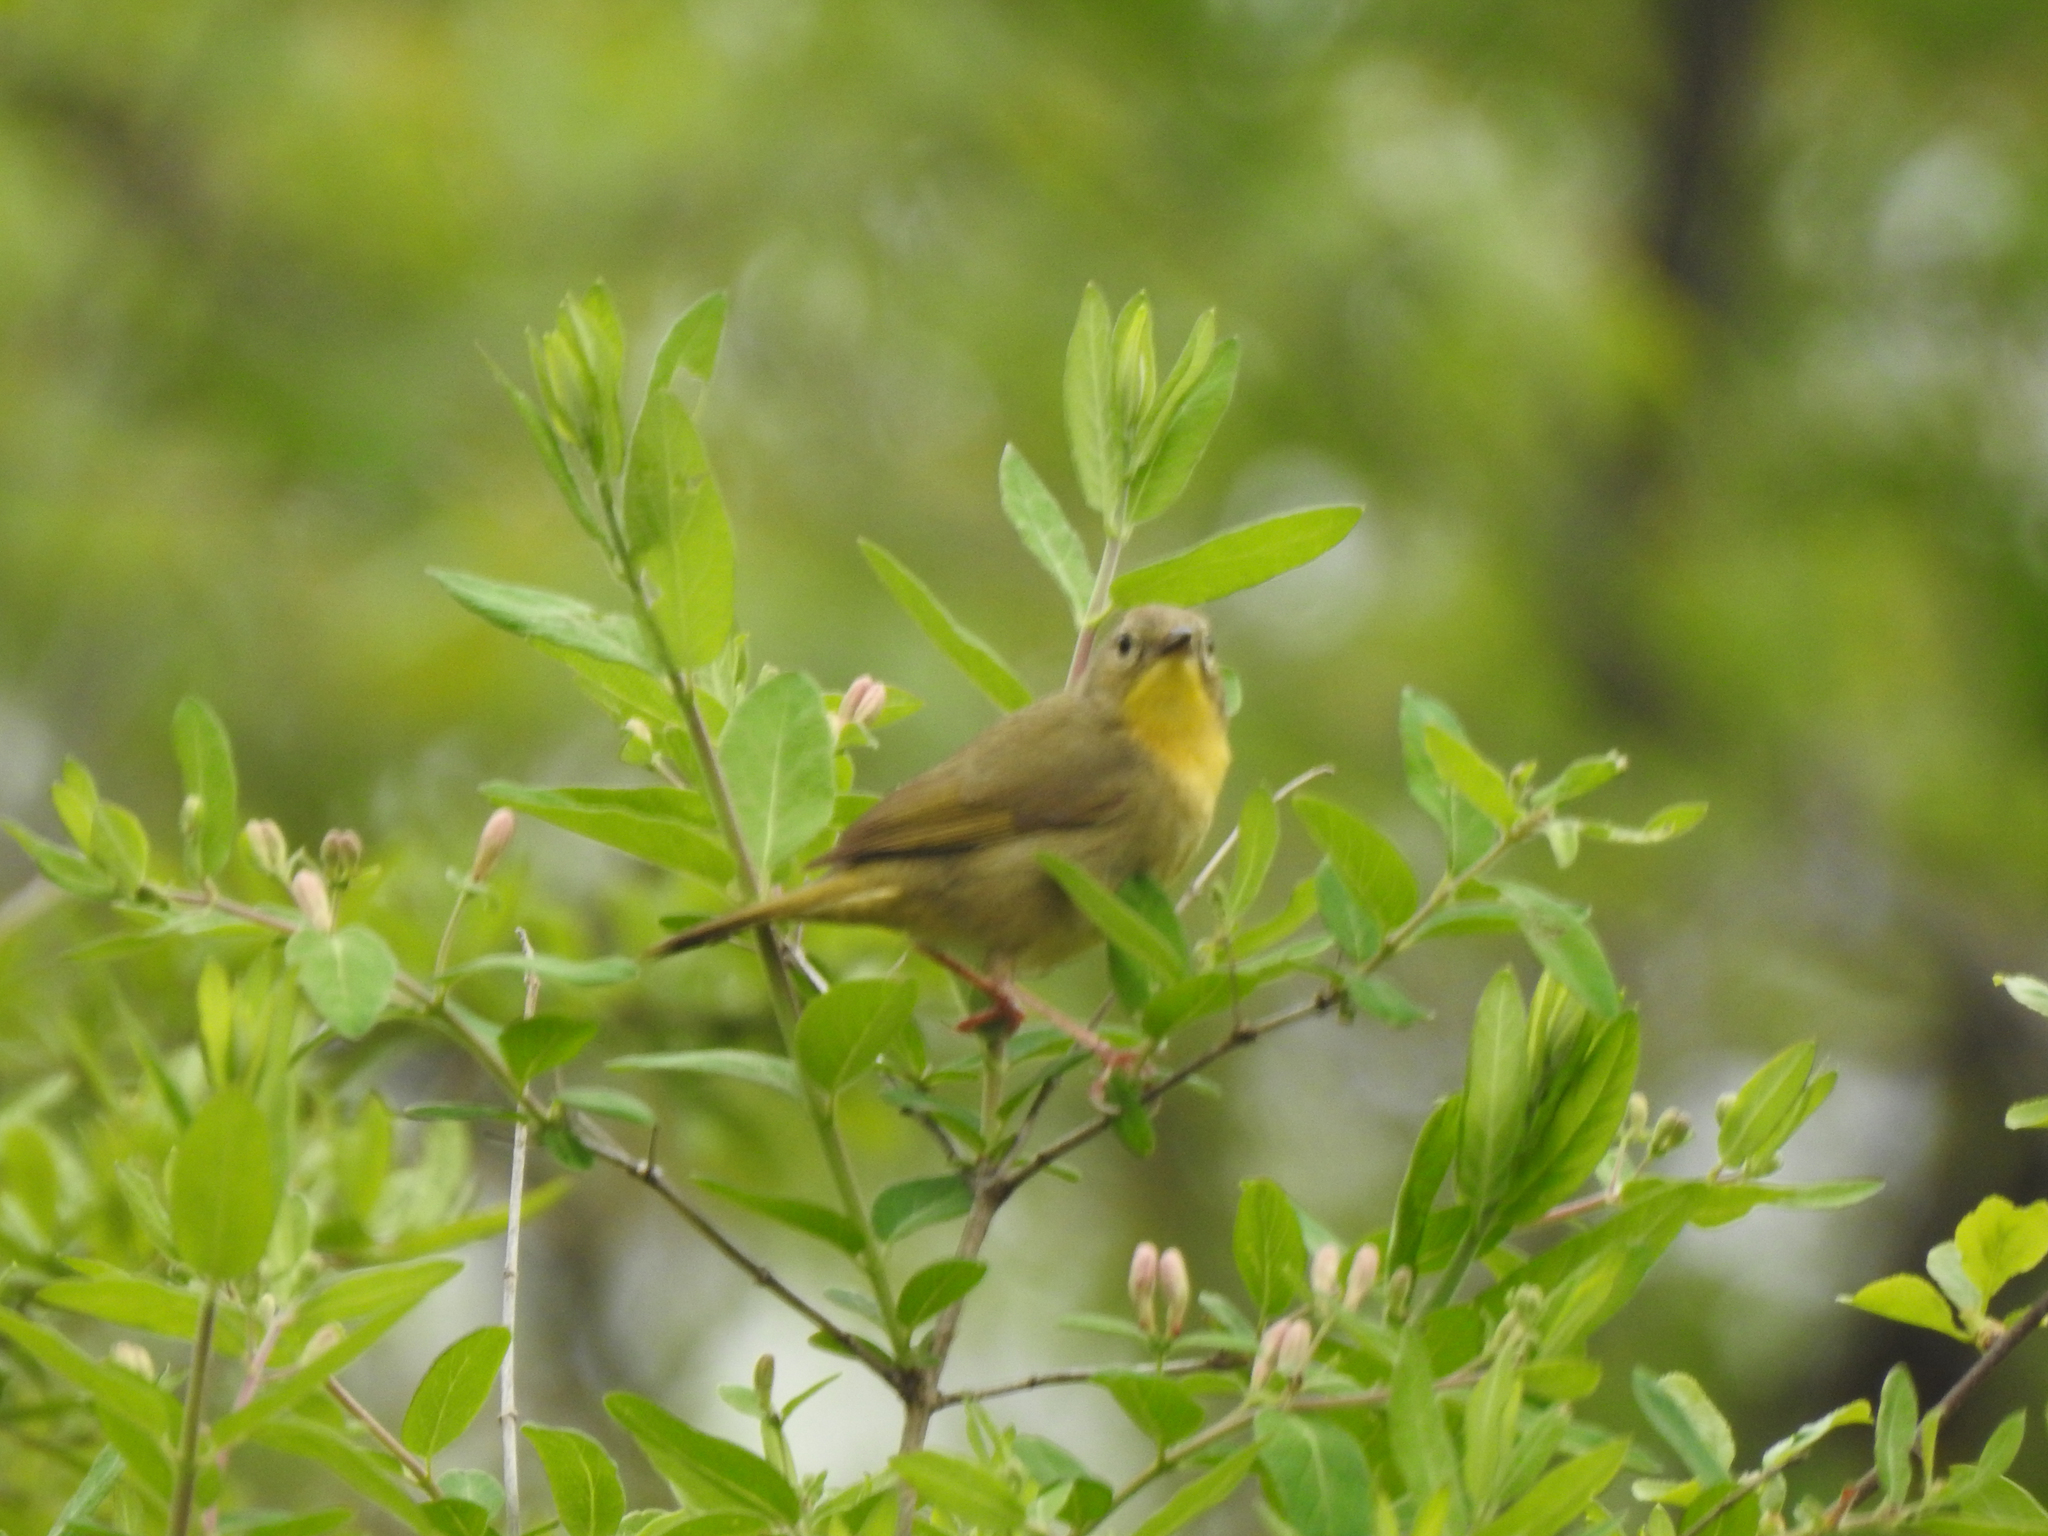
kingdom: Animalia
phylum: Chordata
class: Aves
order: Passeriformes
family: Parulidae
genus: Geothlypis
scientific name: Geothlypis trichas
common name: Common yellowthroat
